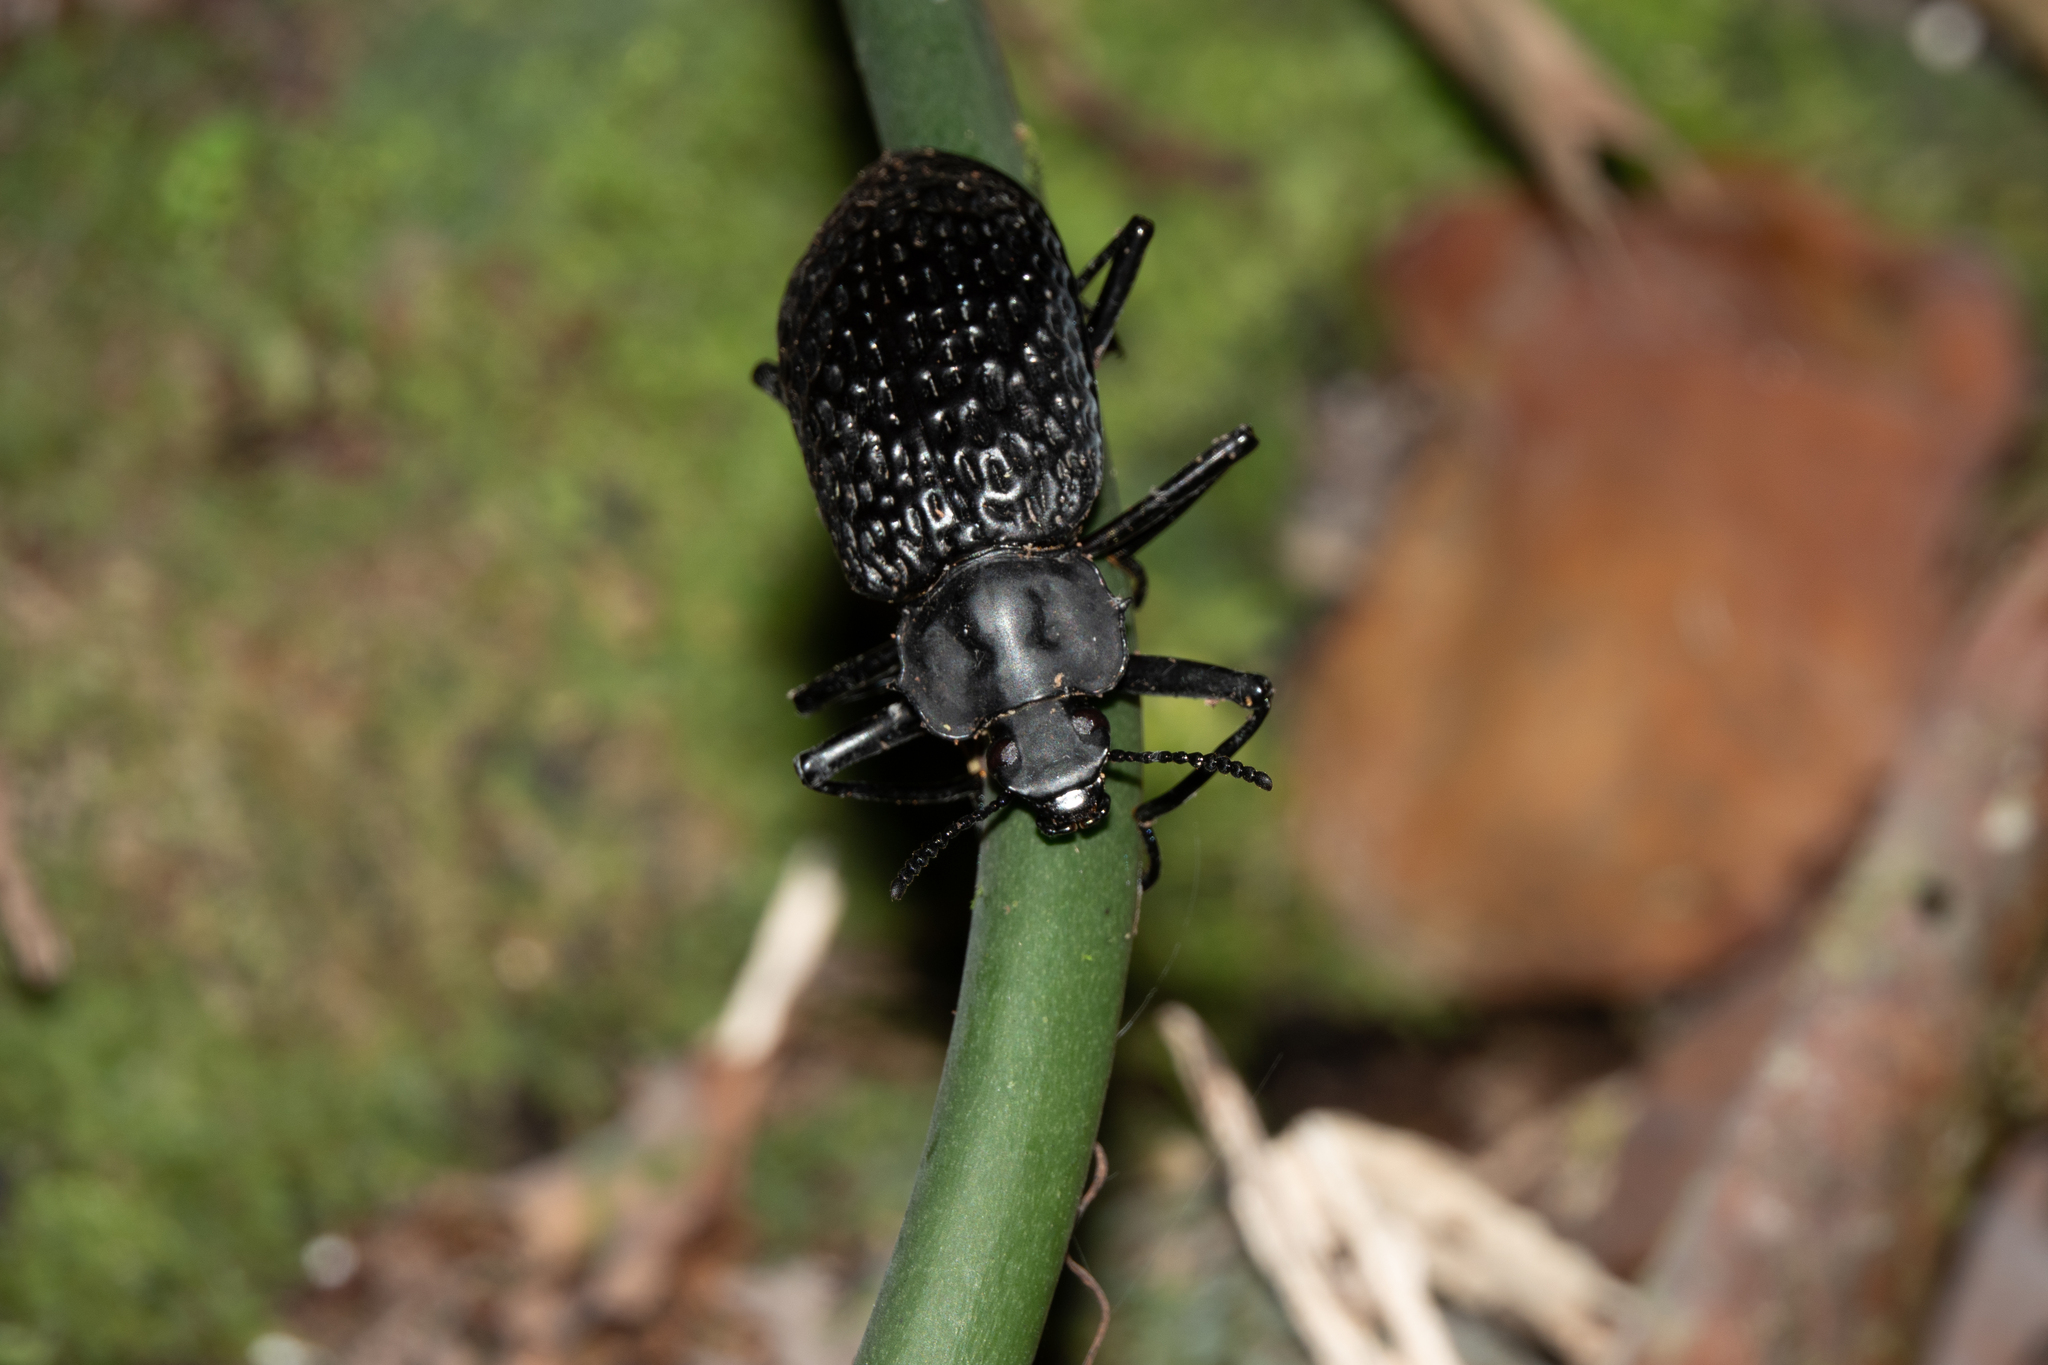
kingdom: Animalia
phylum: Arthropoda
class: Insecta
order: Coleoptera
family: Tenebrionidae
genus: Taphrosoma
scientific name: Taphrosoma dohrni
